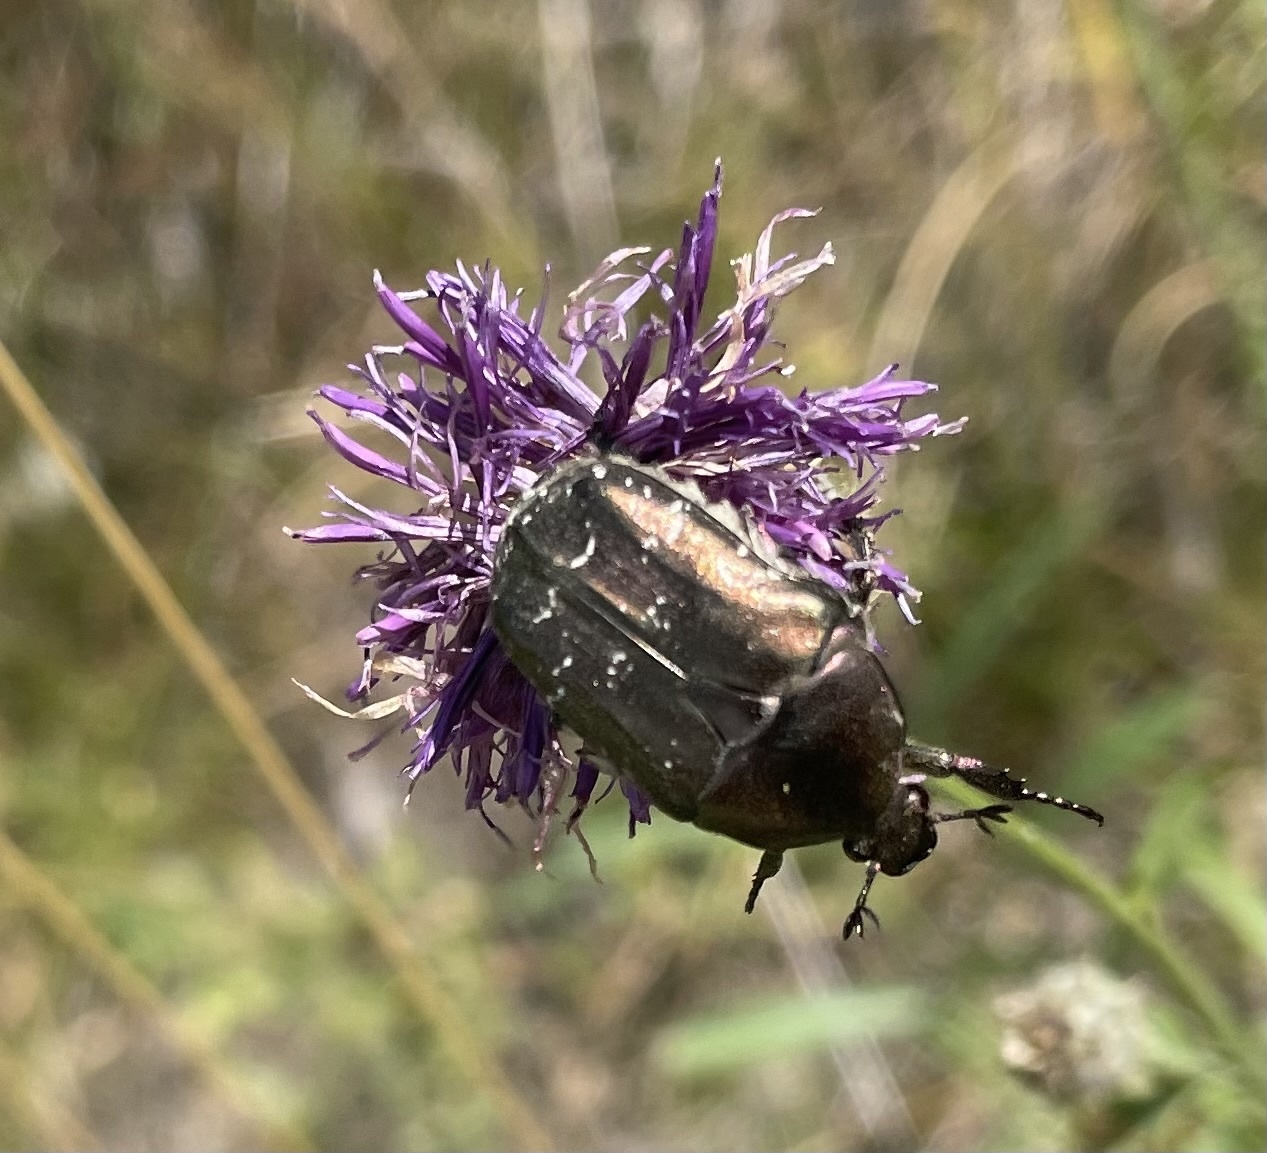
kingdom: Animalia
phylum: Arthropoda
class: Insecta
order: Coleoptera
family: Scarabaeidae
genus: Protaetia
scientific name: Protaetia cuprea
